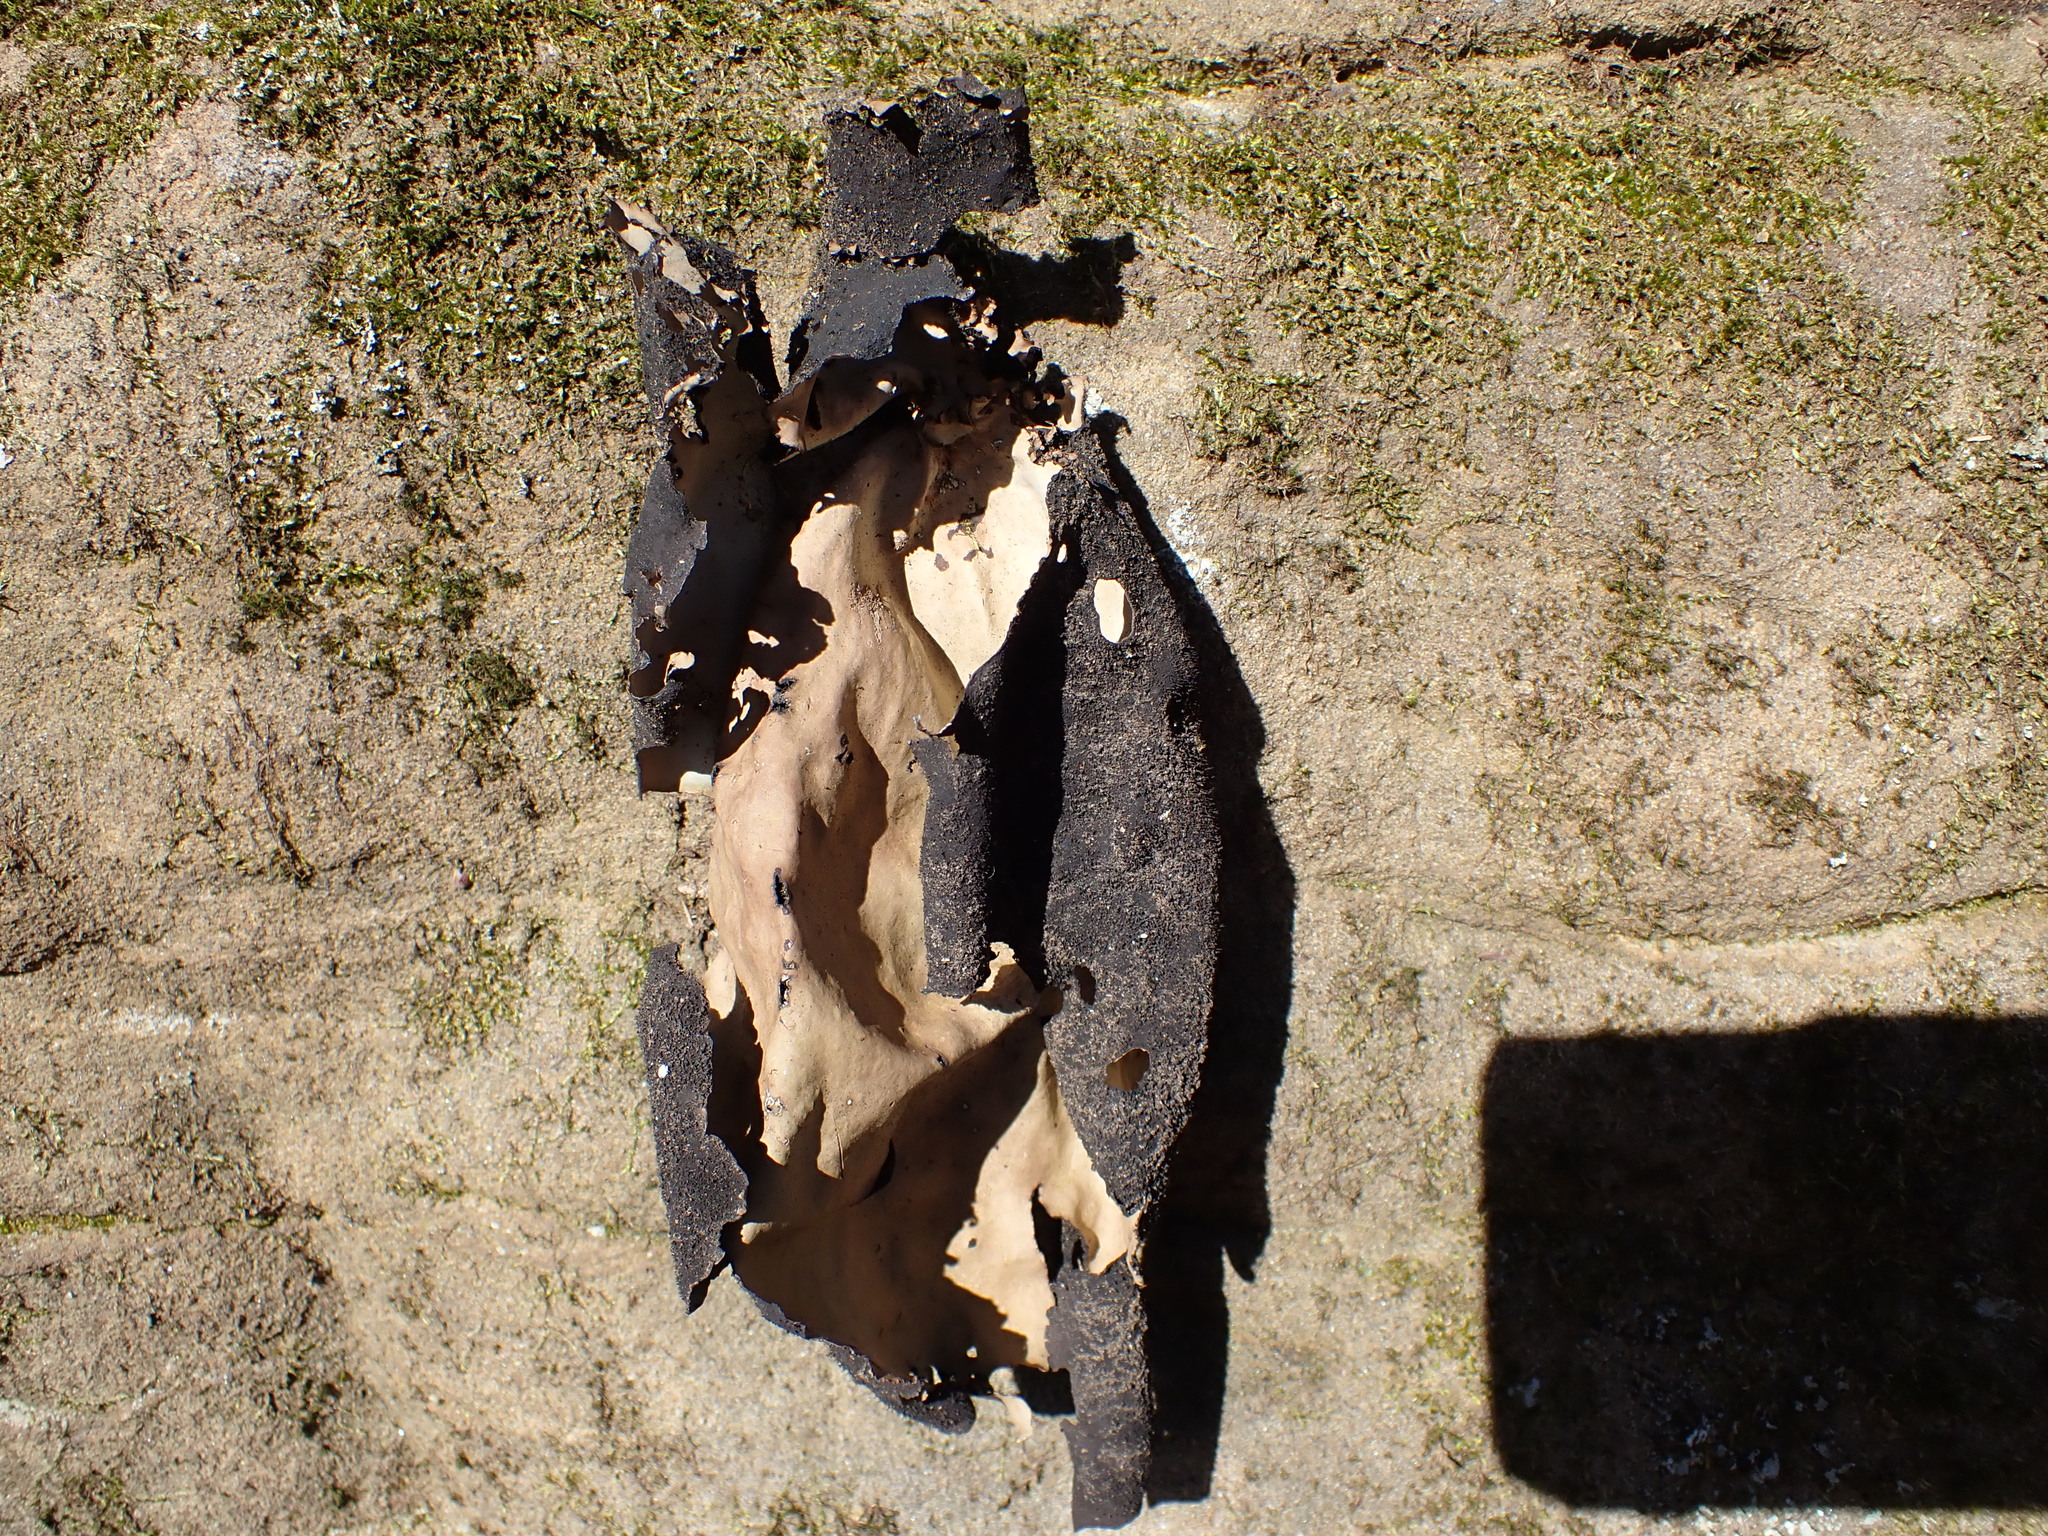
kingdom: Fungi
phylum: Ascomycota
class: Lecanoromycetes
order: Umbilicariales
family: Umbilicariaceae
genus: Umbilicaria
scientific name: Umbilicaria mammulata
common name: Smooth rock tripe
